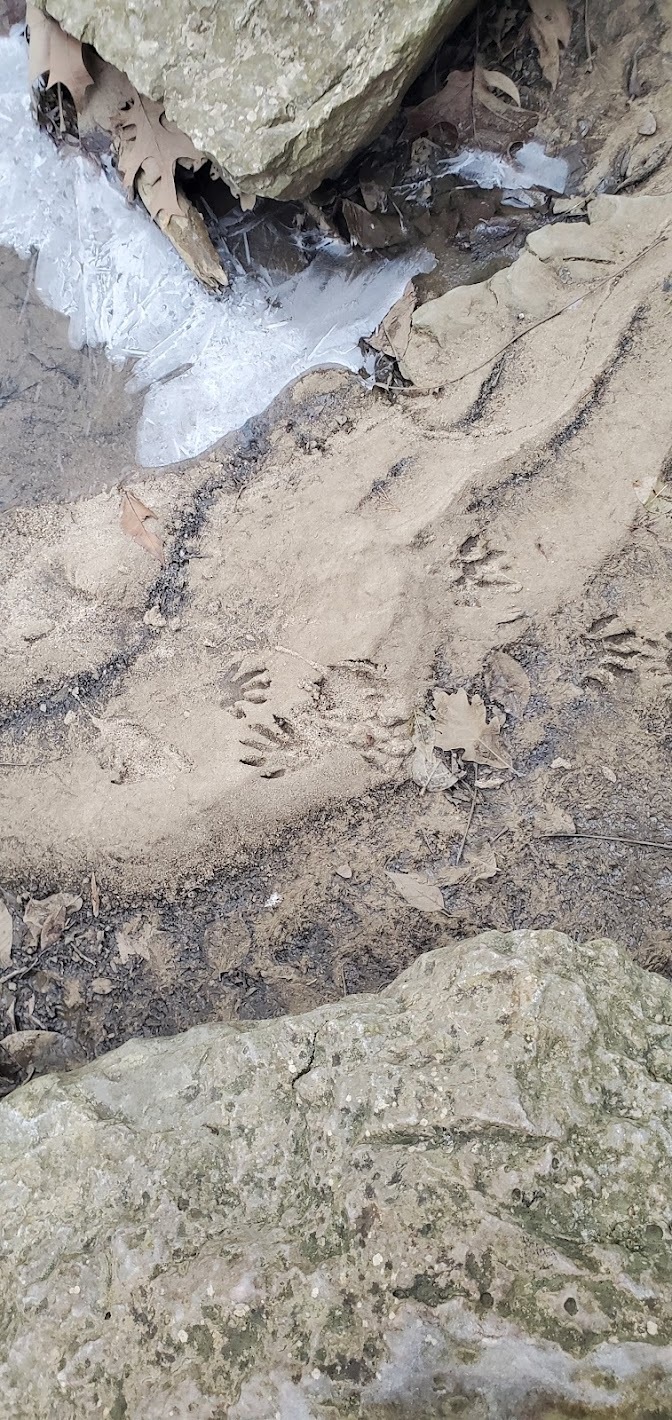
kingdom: Animalia
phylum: Chordata
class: Mammalia
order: Carnivora
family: Procyonidae
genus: Procyon
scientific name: Procyon lotor
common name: Raccoon
